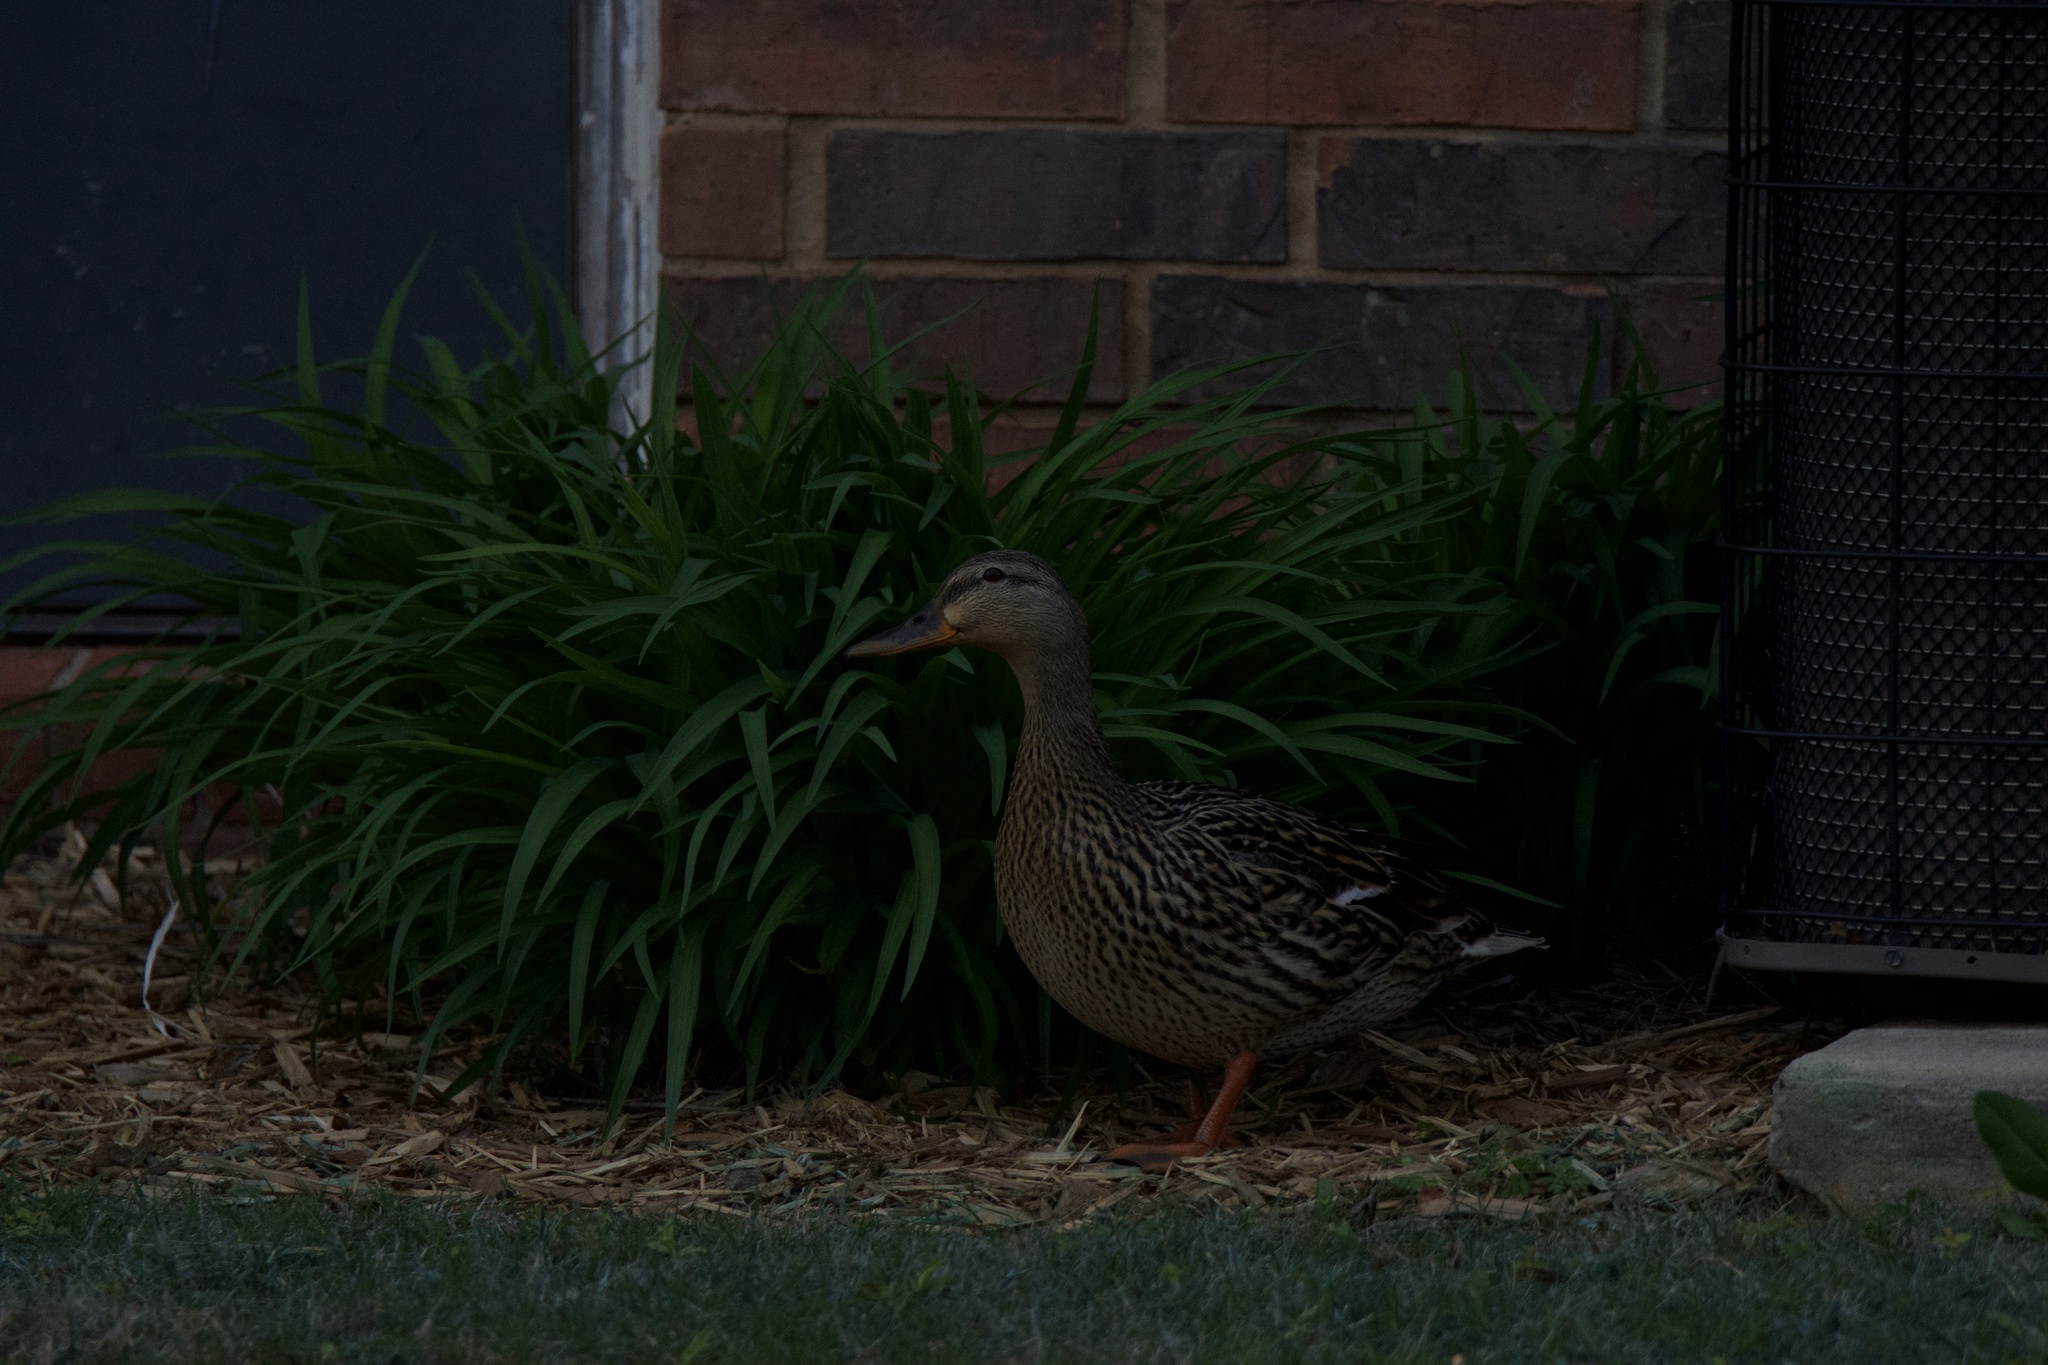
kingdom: Animalia
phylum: Chordata
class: Aves
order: Anseriformes
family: Anatidae
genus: Anas
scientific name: Anas platyrhynchos
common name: Mallard
